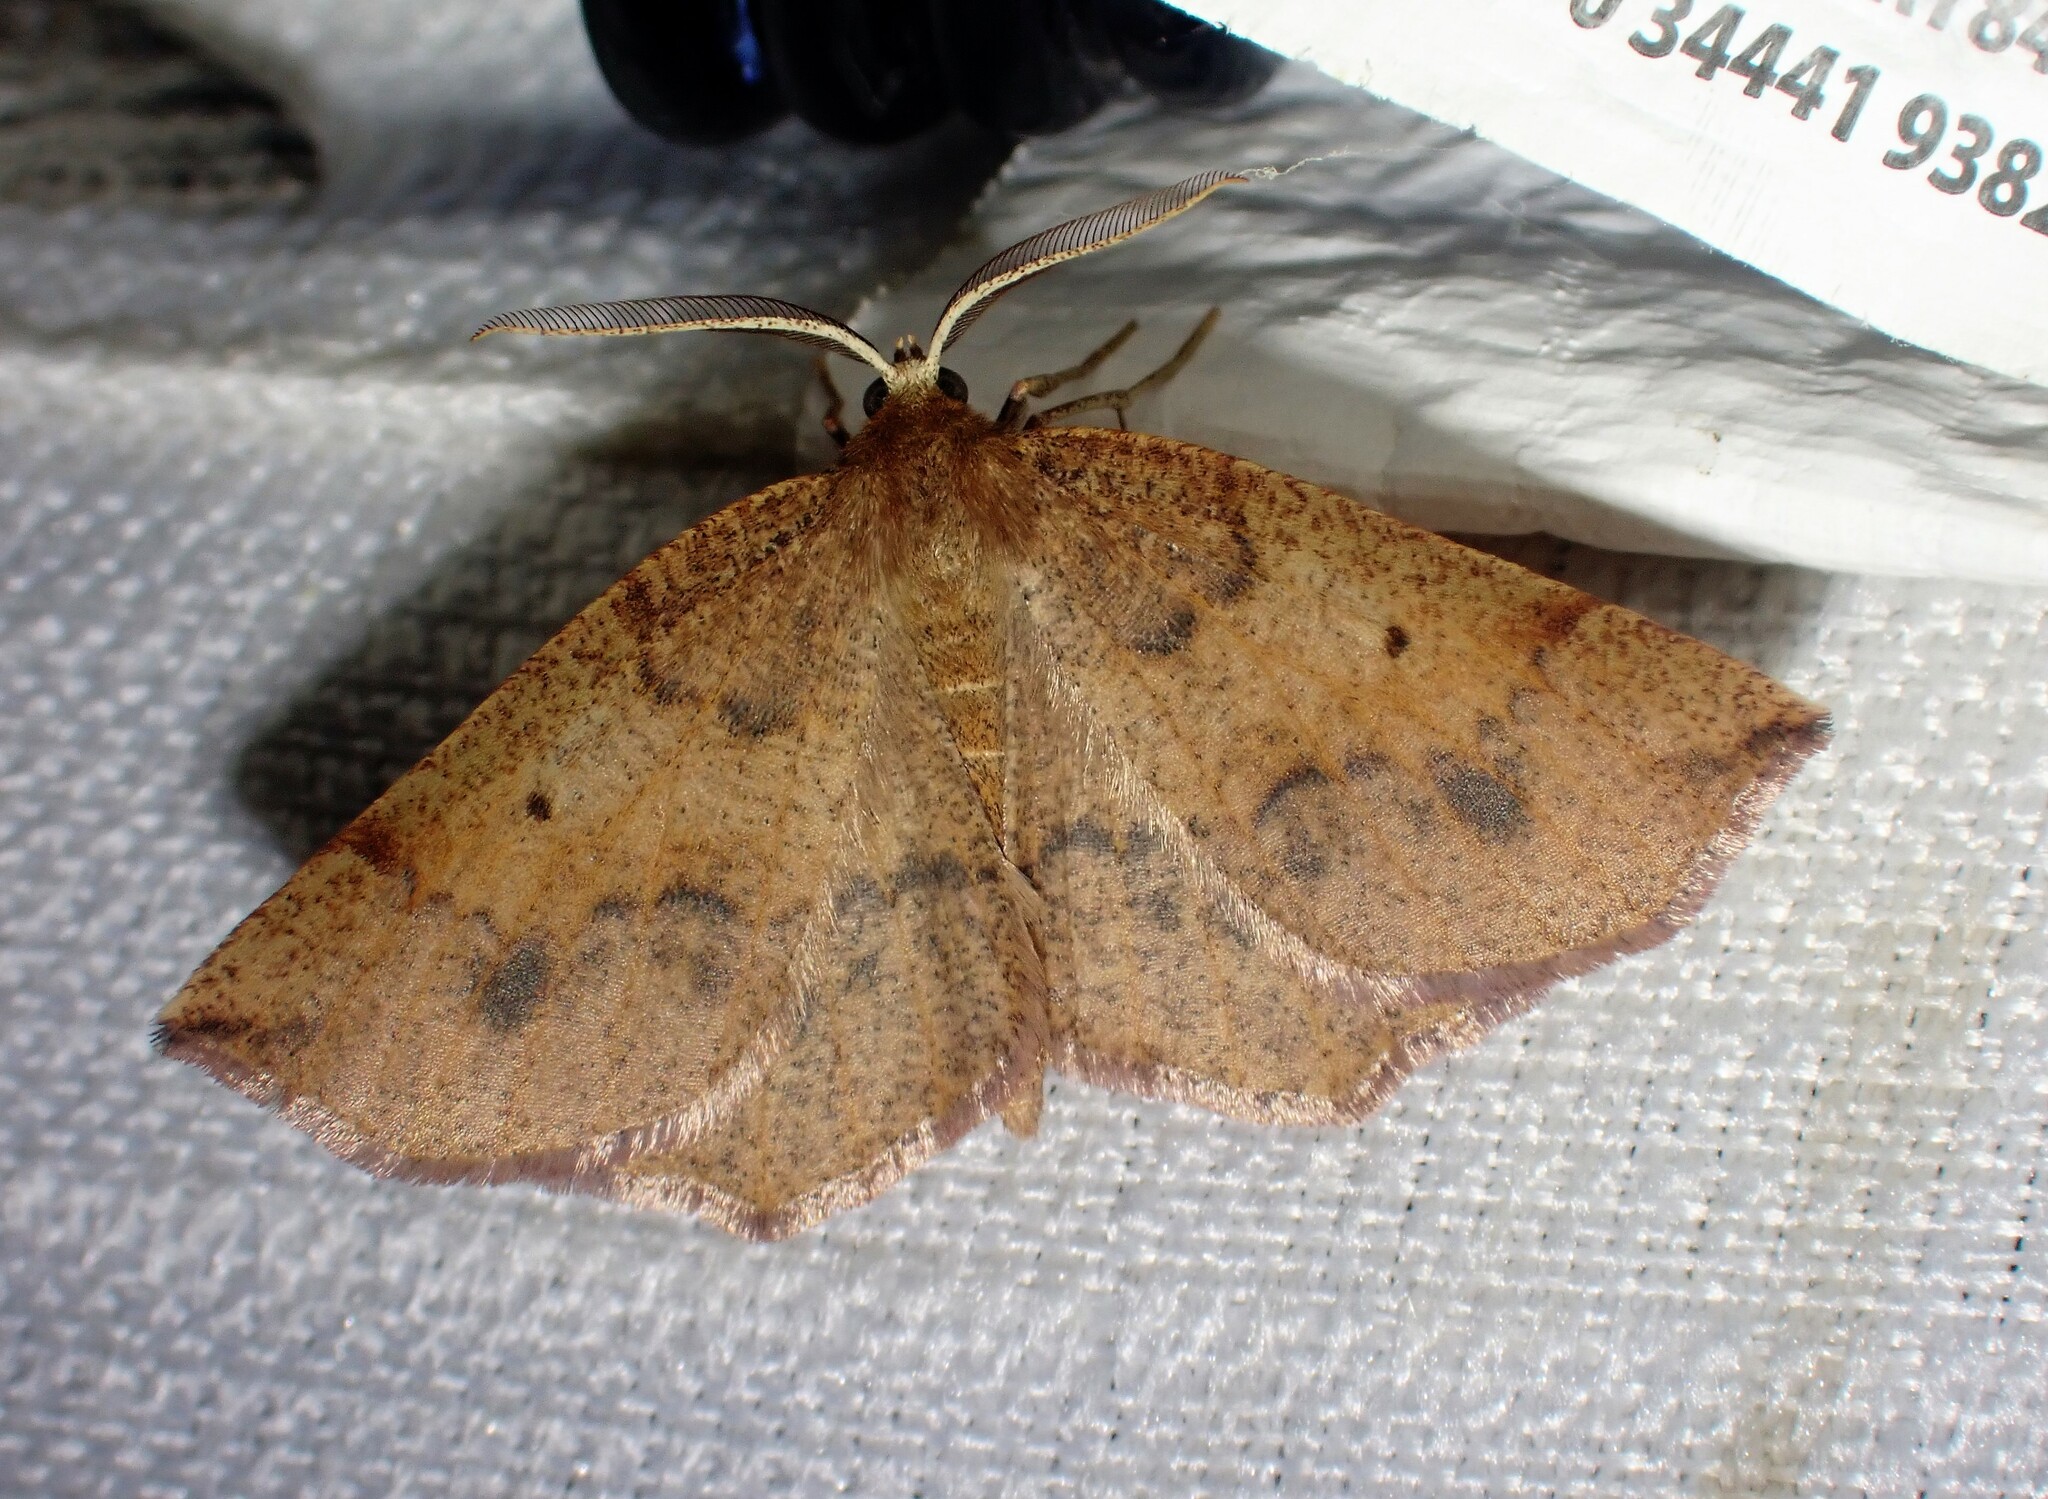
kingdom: Animalia
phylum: Arthropoda
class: Insecta
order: Lepidoptera
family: Geometridae
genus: Metarranthis
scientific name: Metarranthis duaria
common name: Ruddy metarranthis moth
